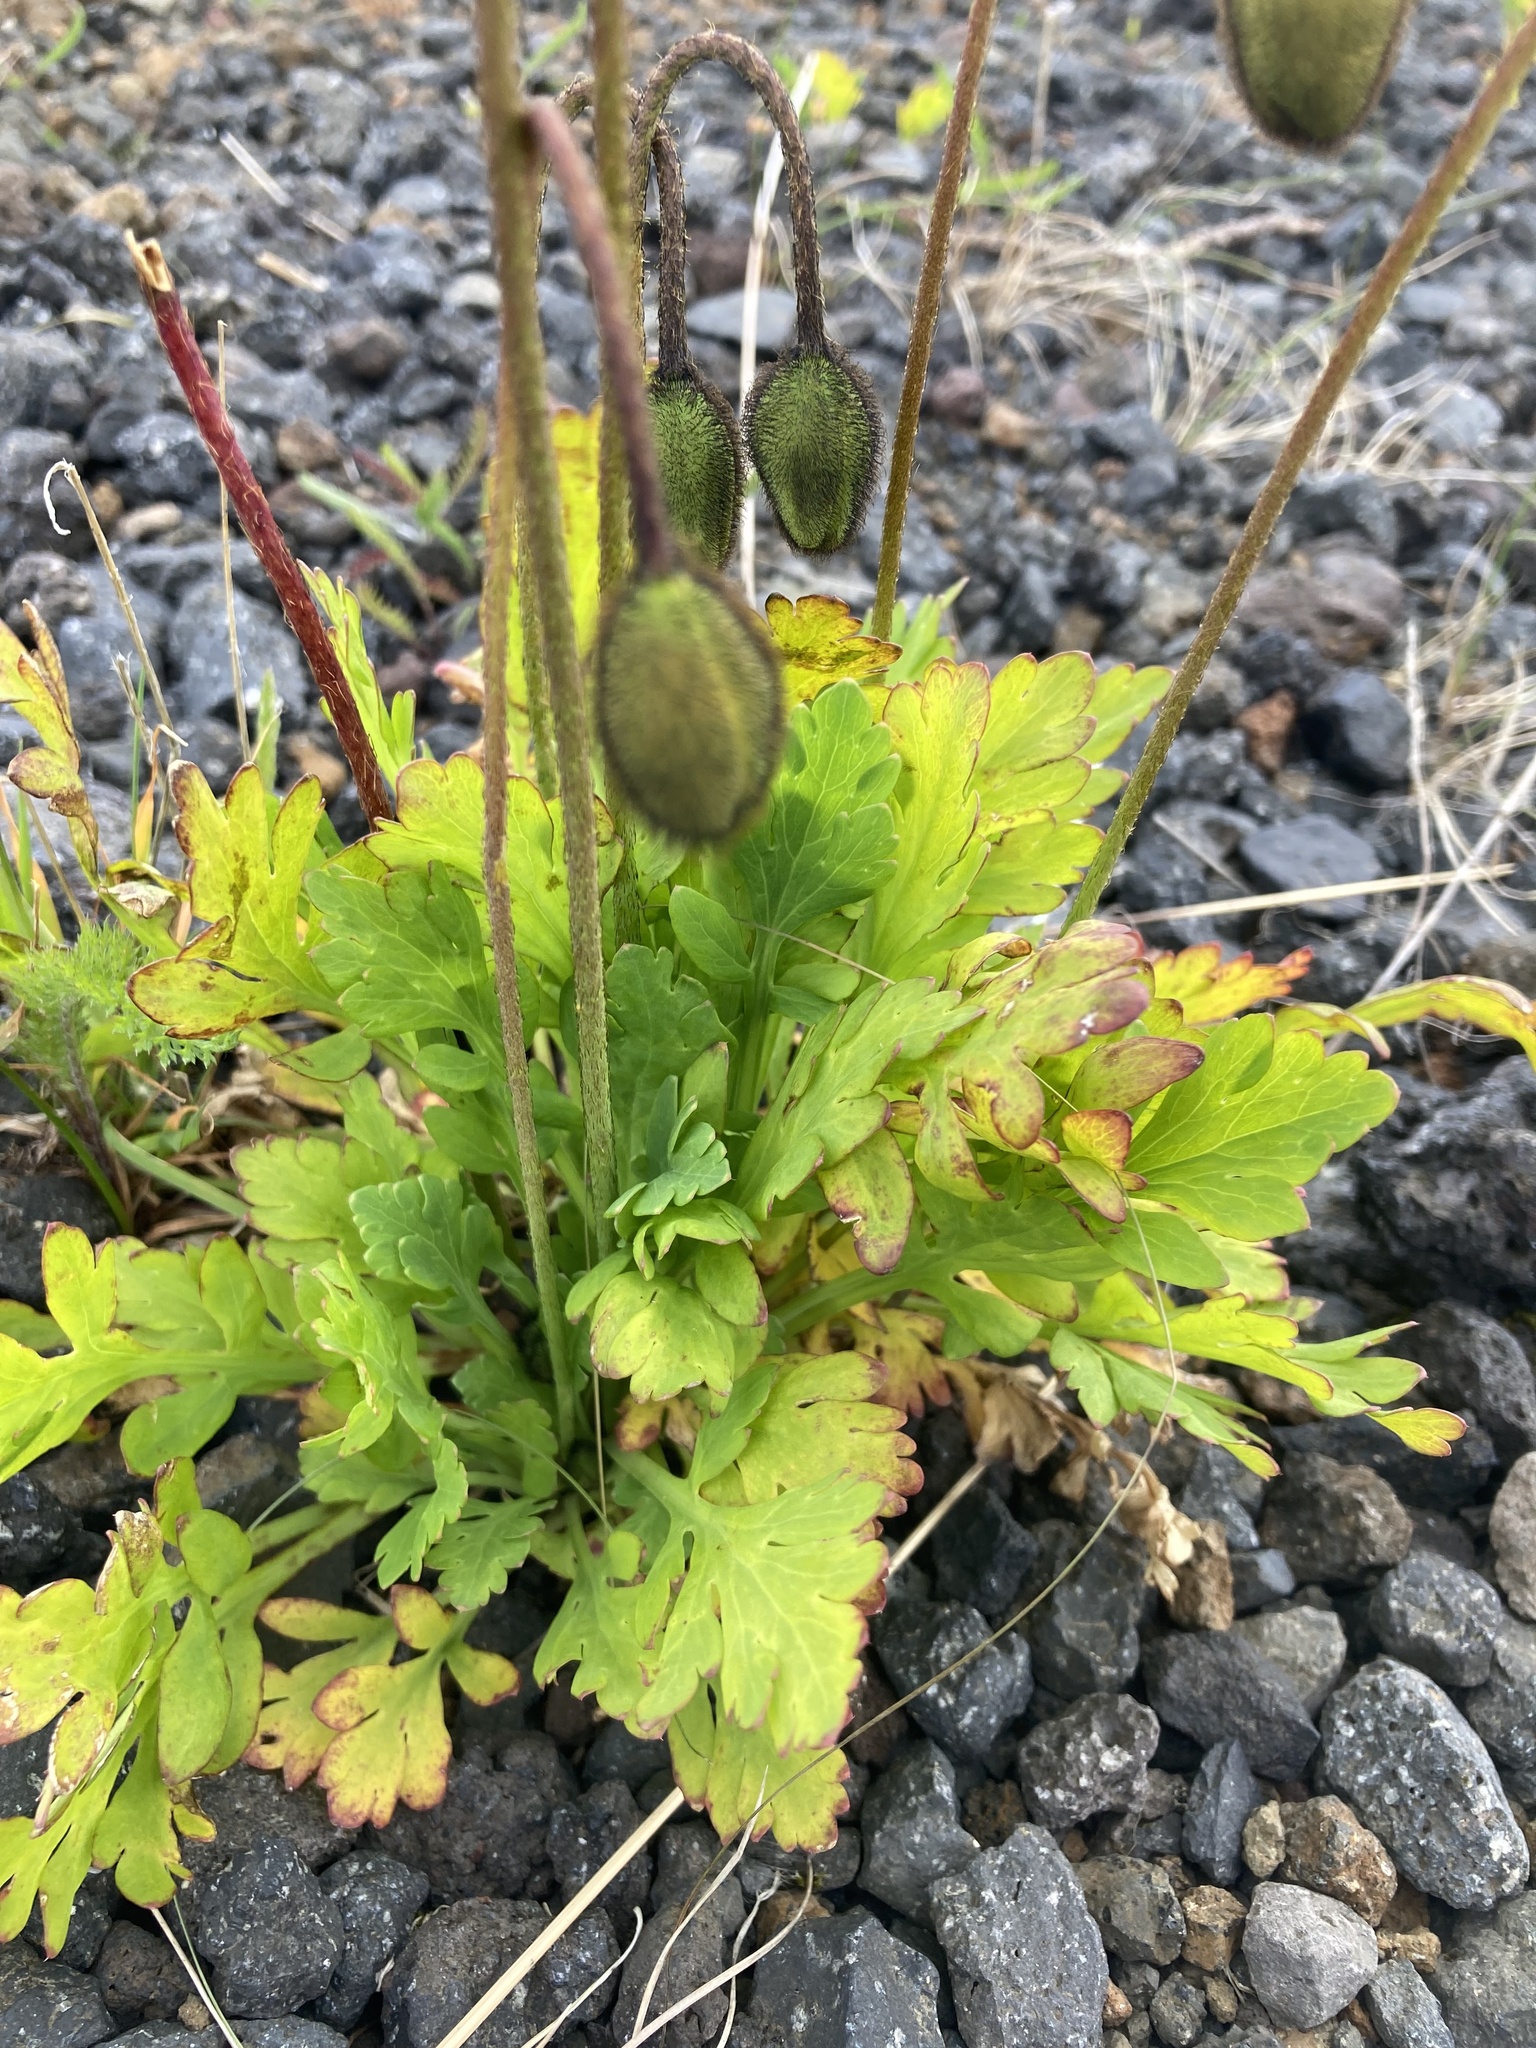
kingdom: Plantae
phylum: Tracheophyta
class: Magnoliopsida
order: Ranunculales
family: Papaveraceae
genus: Papaver
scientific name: Papaver nudicaule
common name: Arctic poppy
